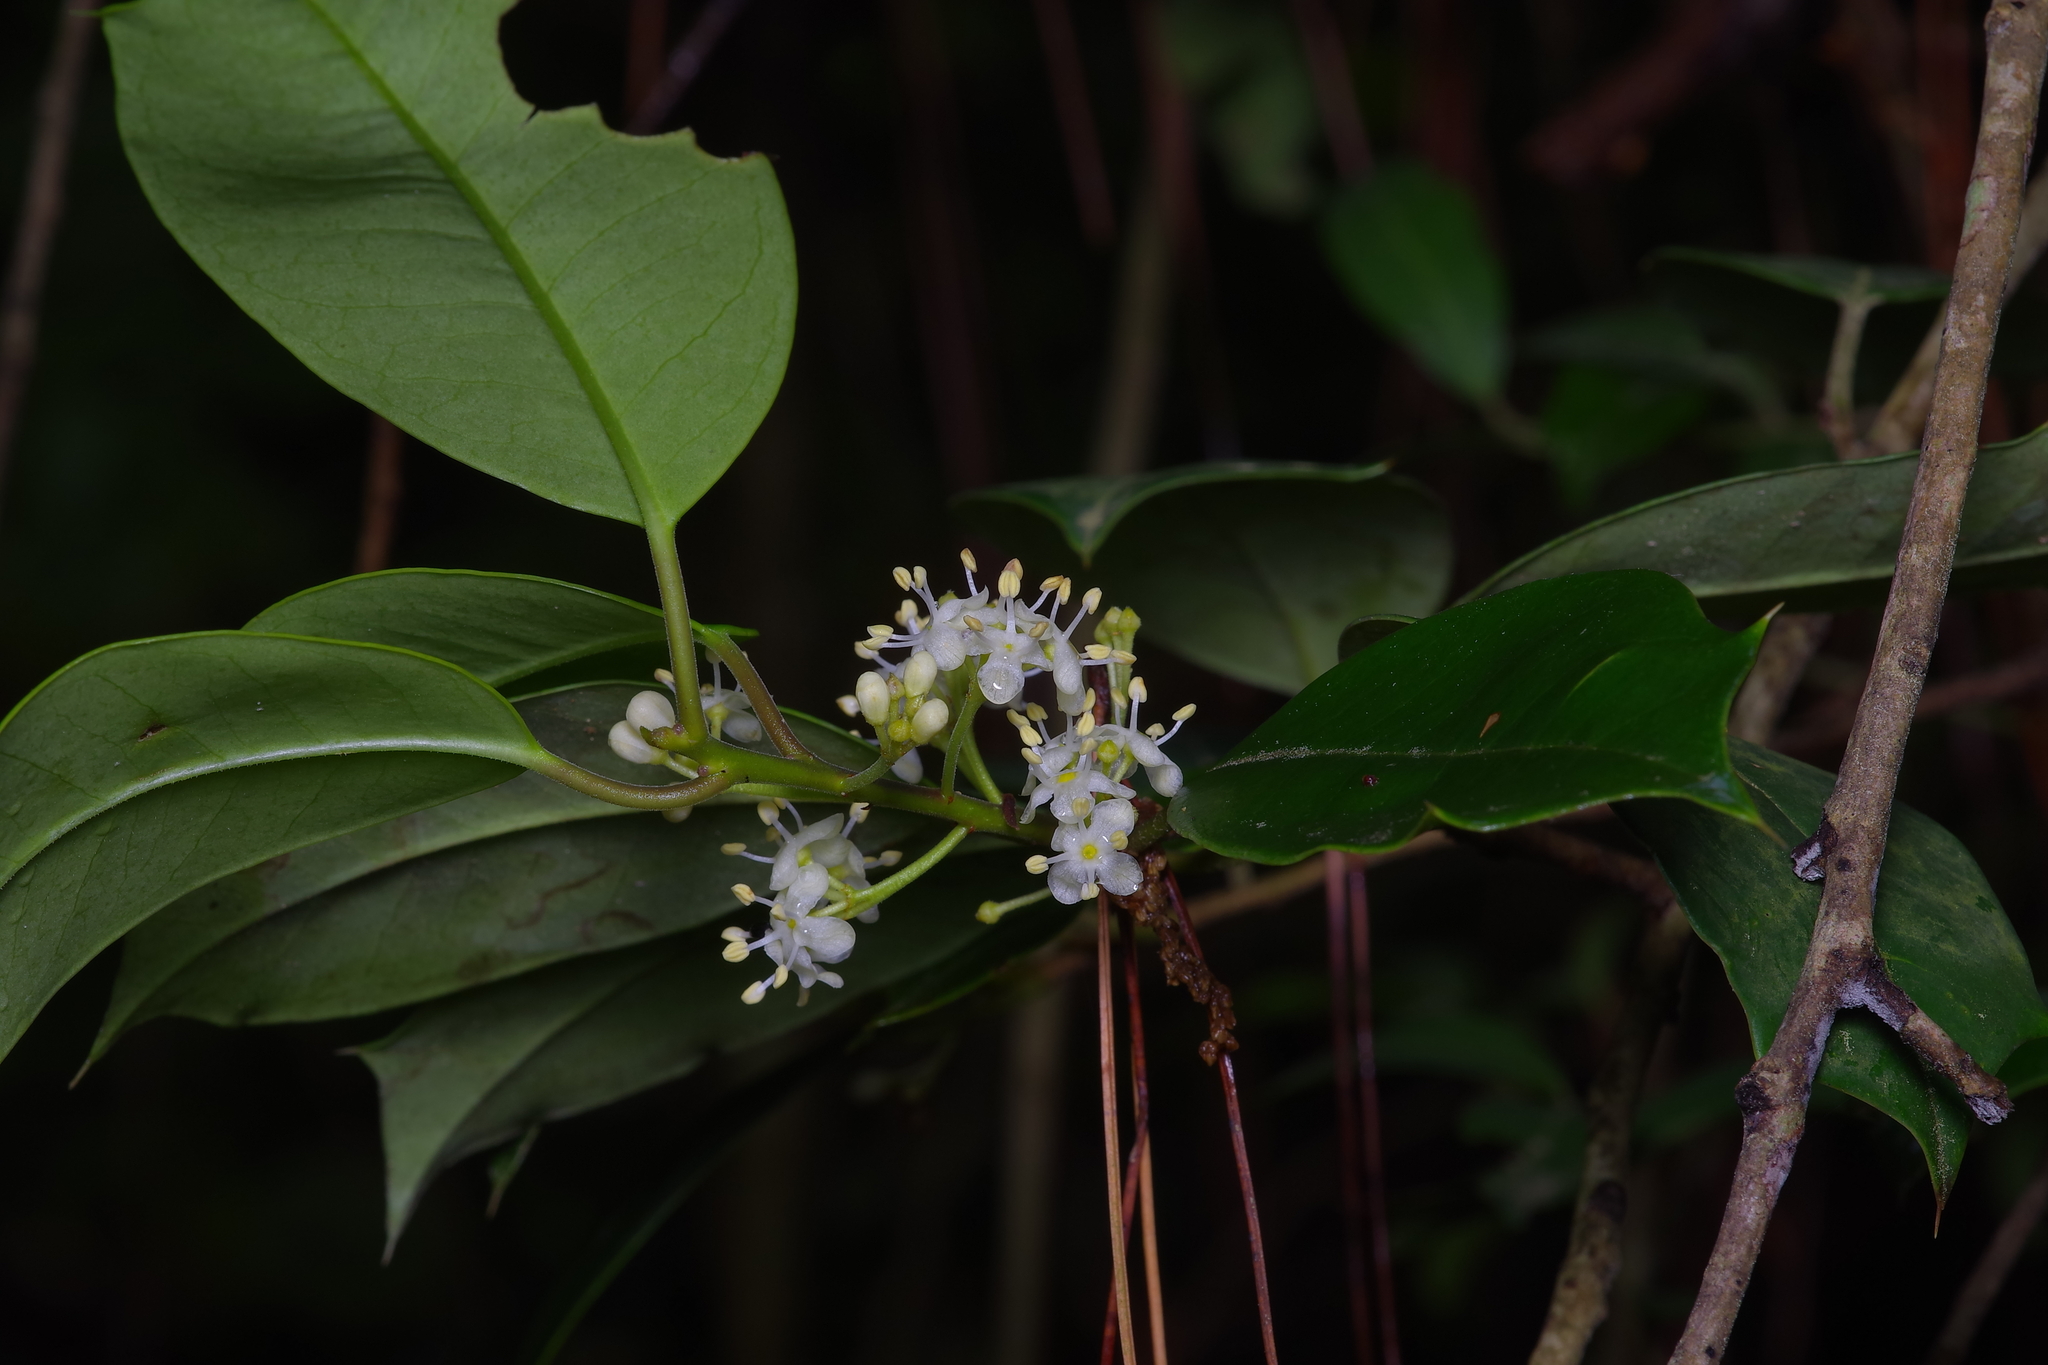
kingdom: Plantae
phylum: Tracheophyta
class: Magnoliopsida
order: Aquifoliales
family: Aquifoliaceae
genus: Ilex
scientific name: Ilex opaca
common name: American holly
